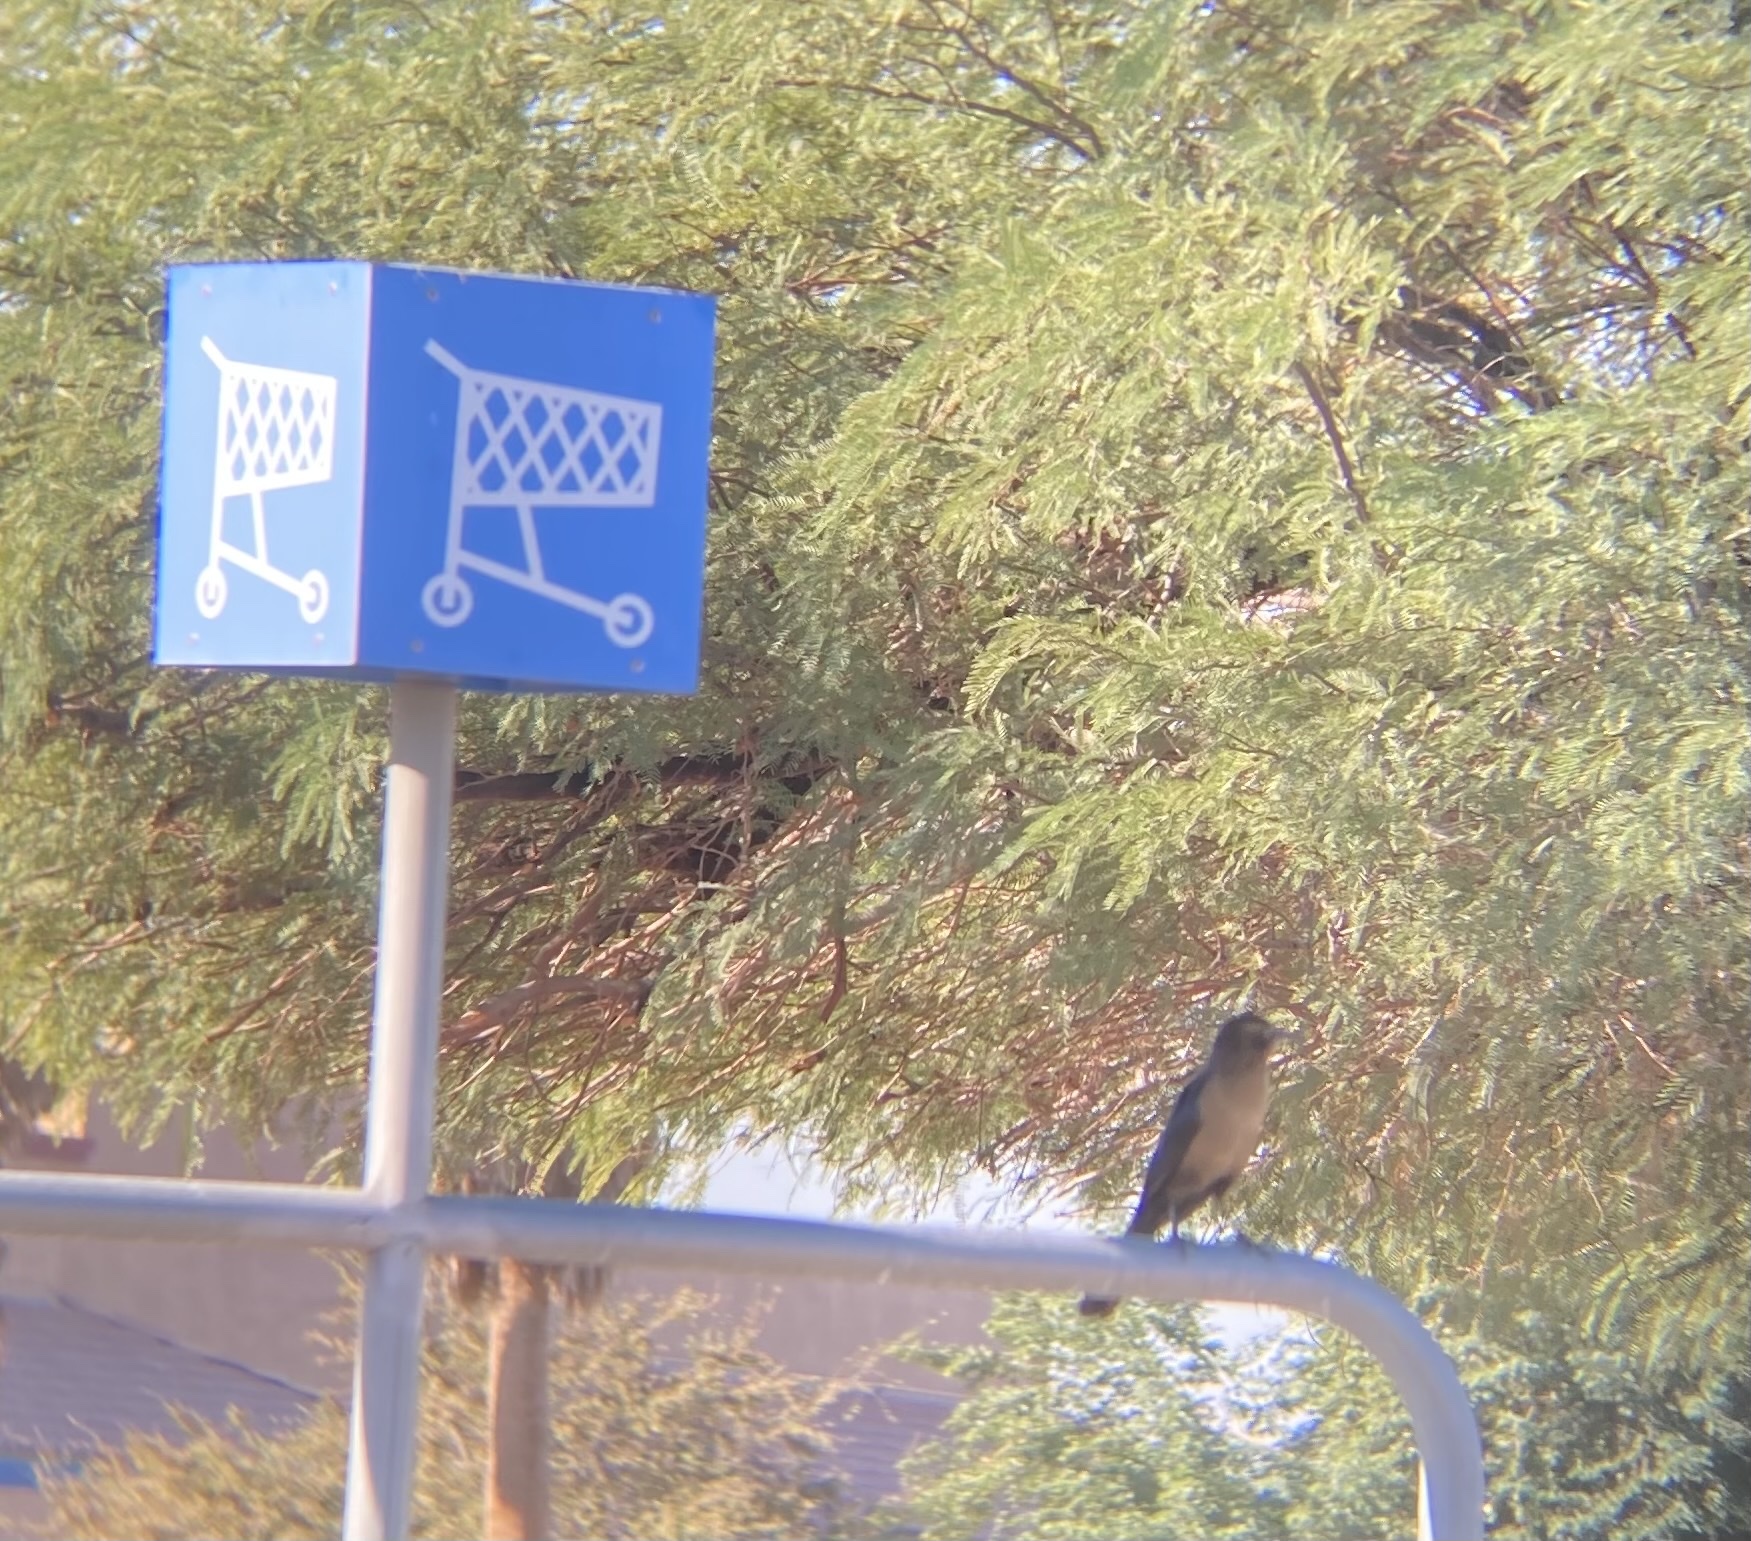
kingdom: Animalia
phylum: Chordata
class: Aves
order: Passeriformes
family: Icteridae
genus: Quiscalus
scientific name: Quiscalus mexicanus
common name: Great-tailed grackle
